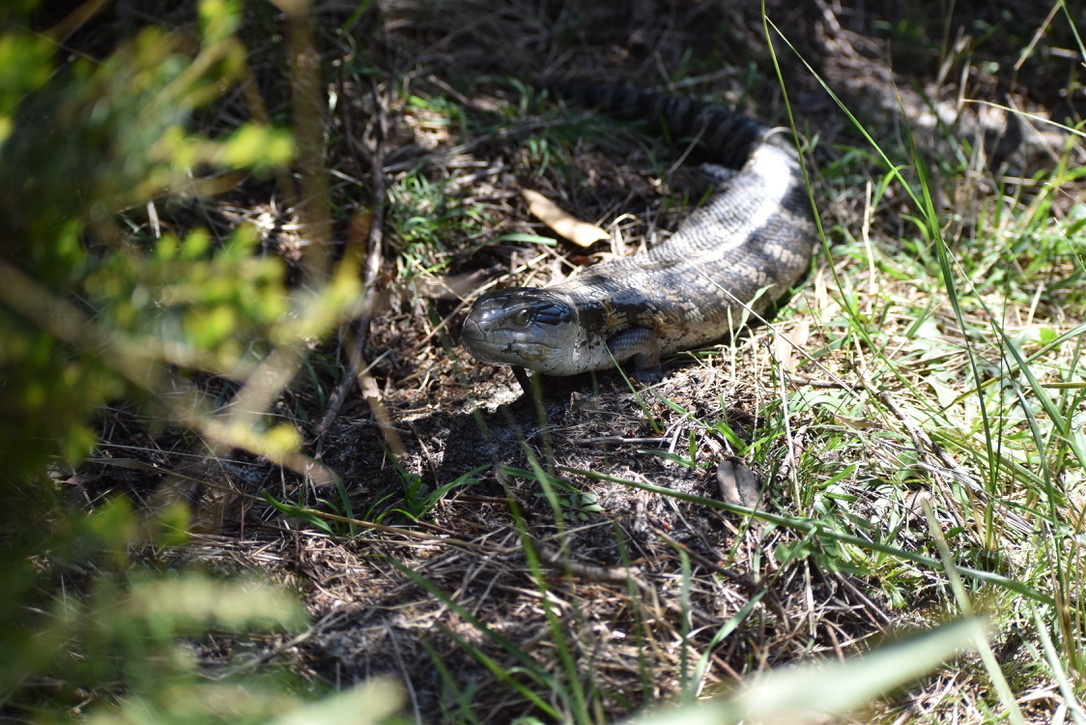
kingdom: Animalia
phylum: Chordata
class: Squamata
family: Scincidae
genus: Tiliqua
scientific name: Tiliqua scincoides
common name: Common bluetongue
